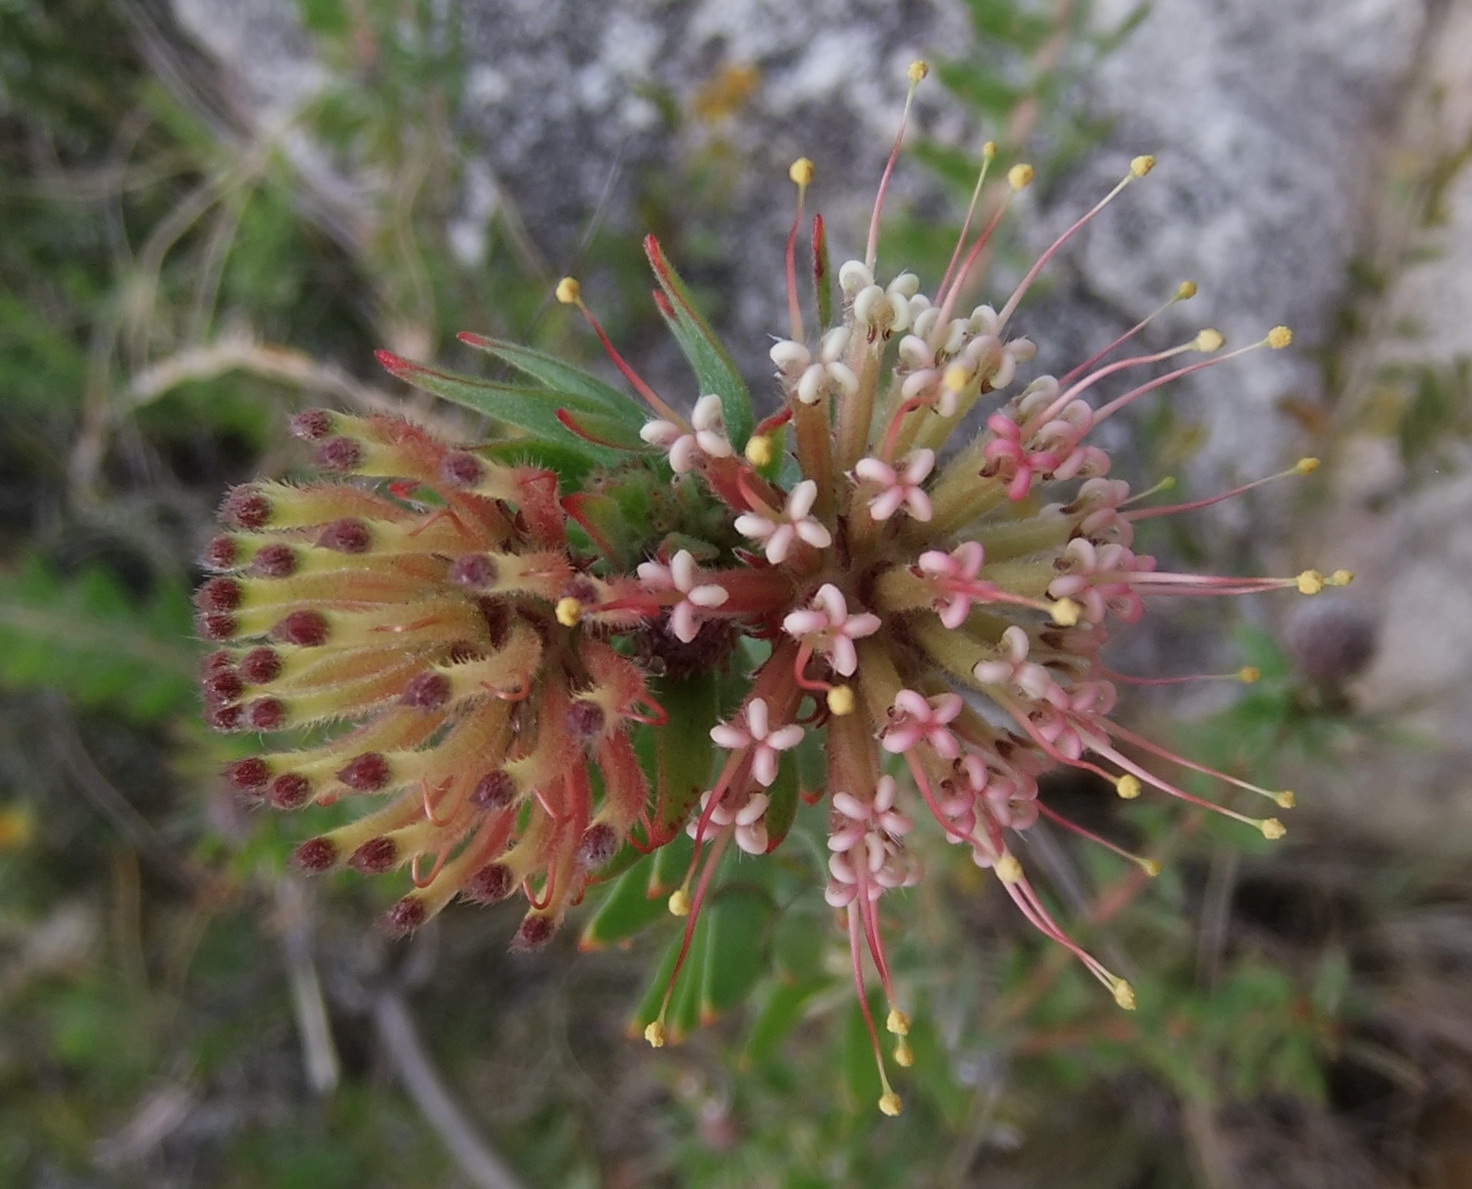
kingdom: Plantae
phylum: Tracheophyta
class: Magnoliopsida
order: Proteales
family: Proteaceae
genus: Leucospermum
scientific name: Leucospermum wittebergense
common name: Swartberg pincushion
